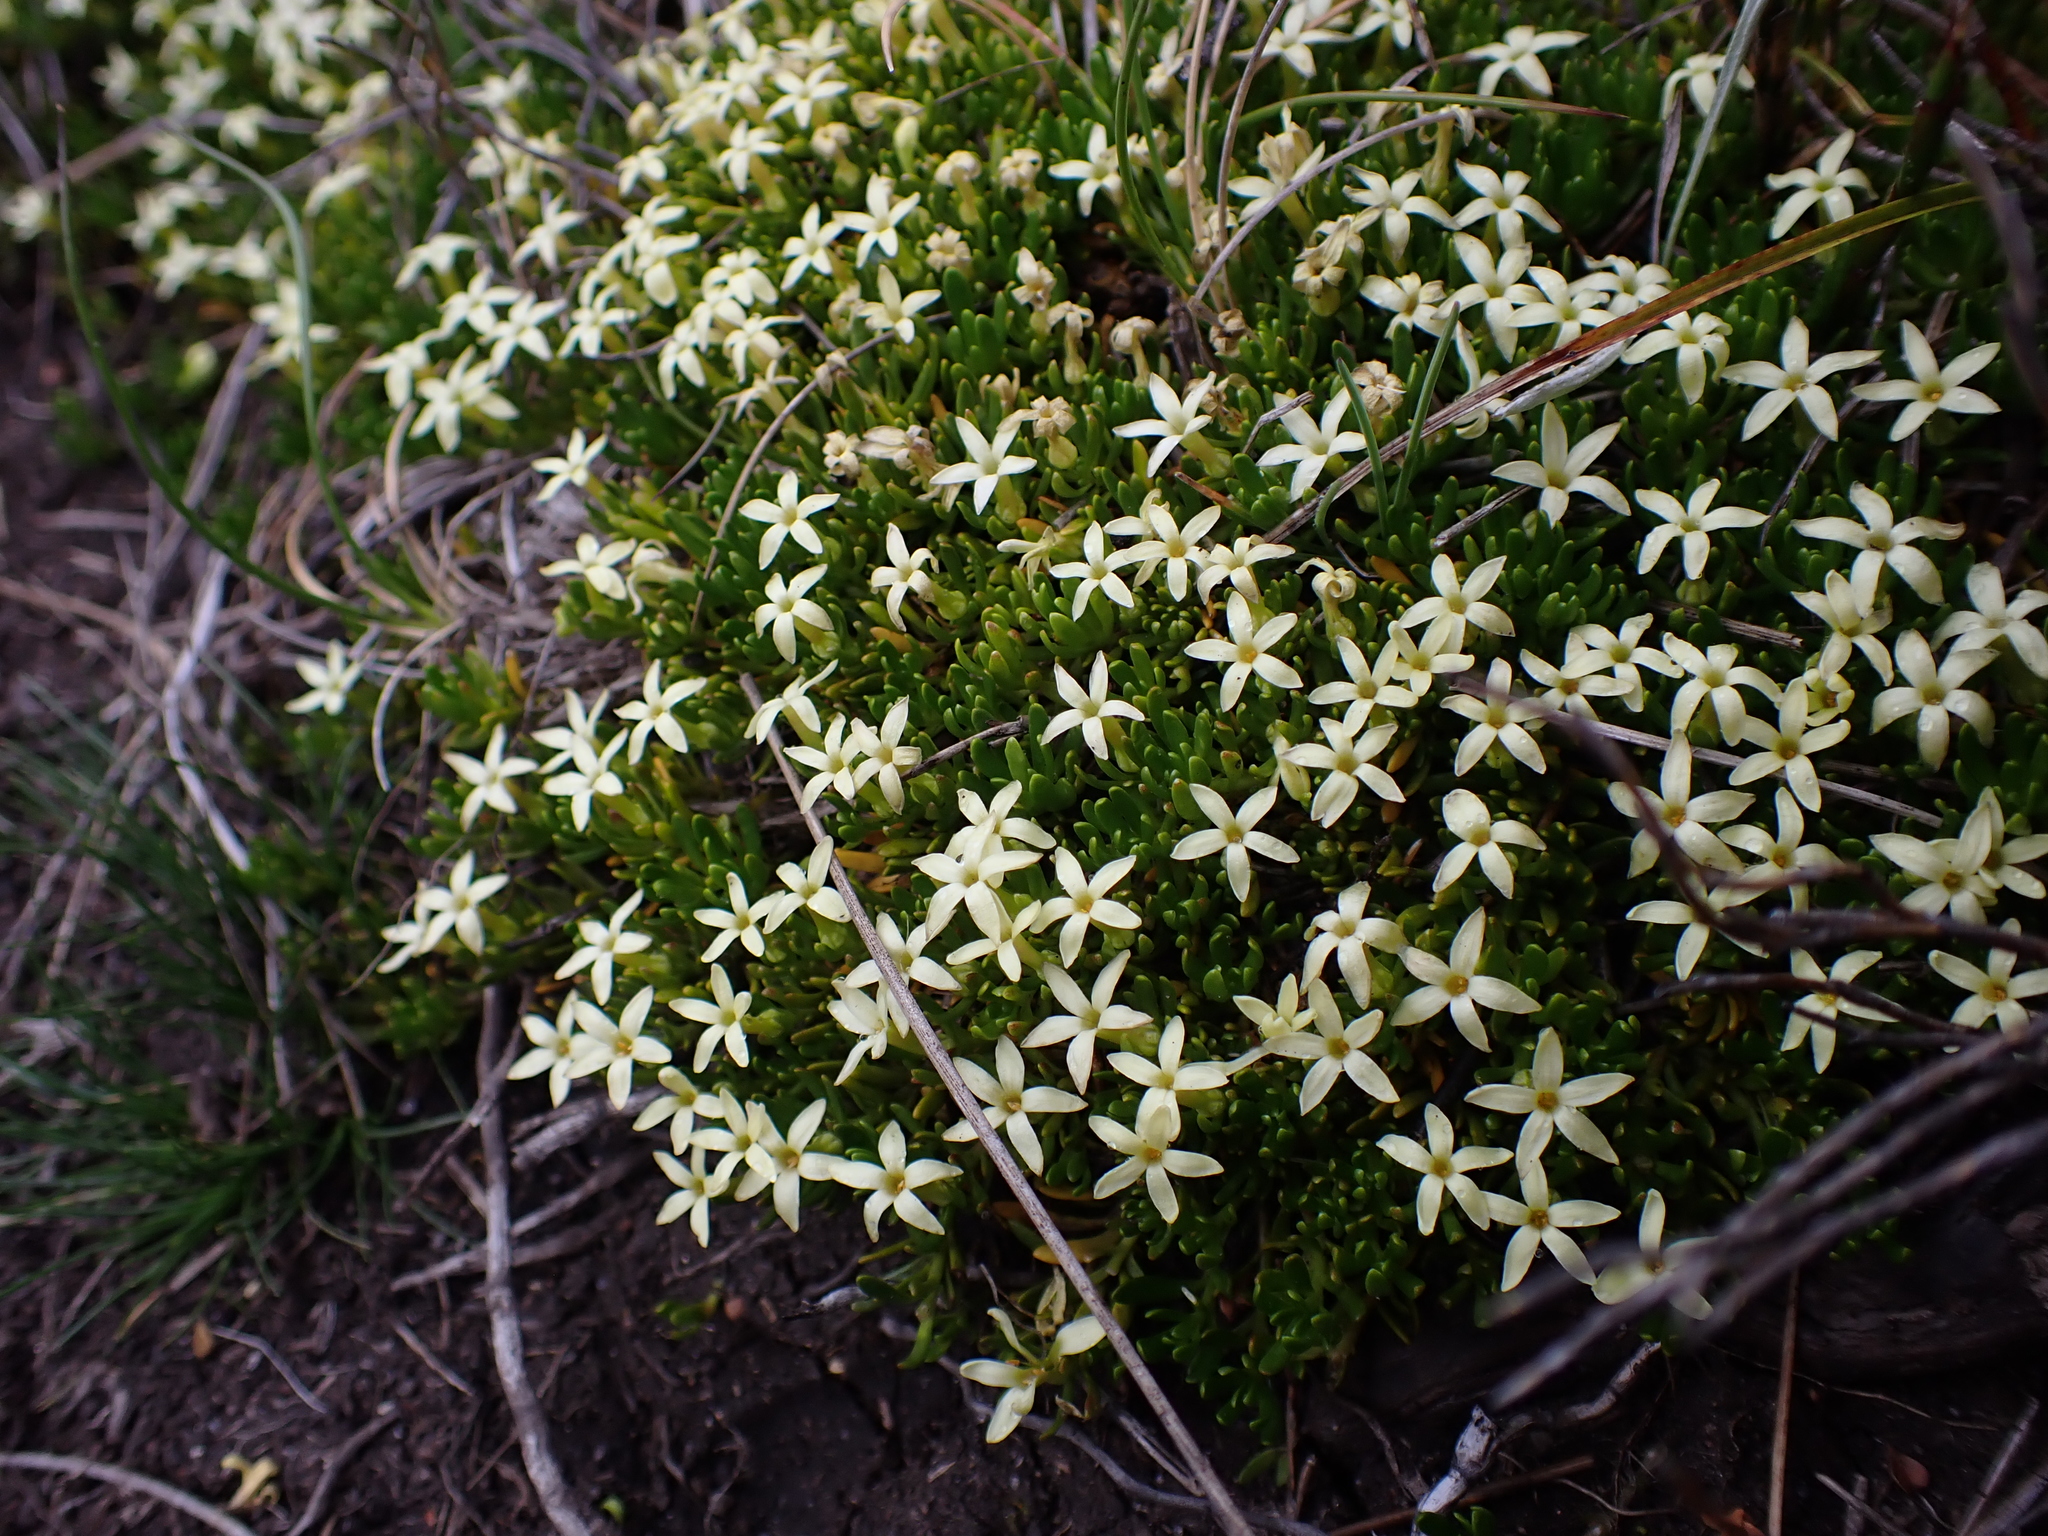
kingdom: Plantae
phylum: Tracheophyta
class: Magnoliopsida
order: Celastrales
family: Celastraceae
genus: Stackhousia
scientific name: Stackhousia pulvinaris
